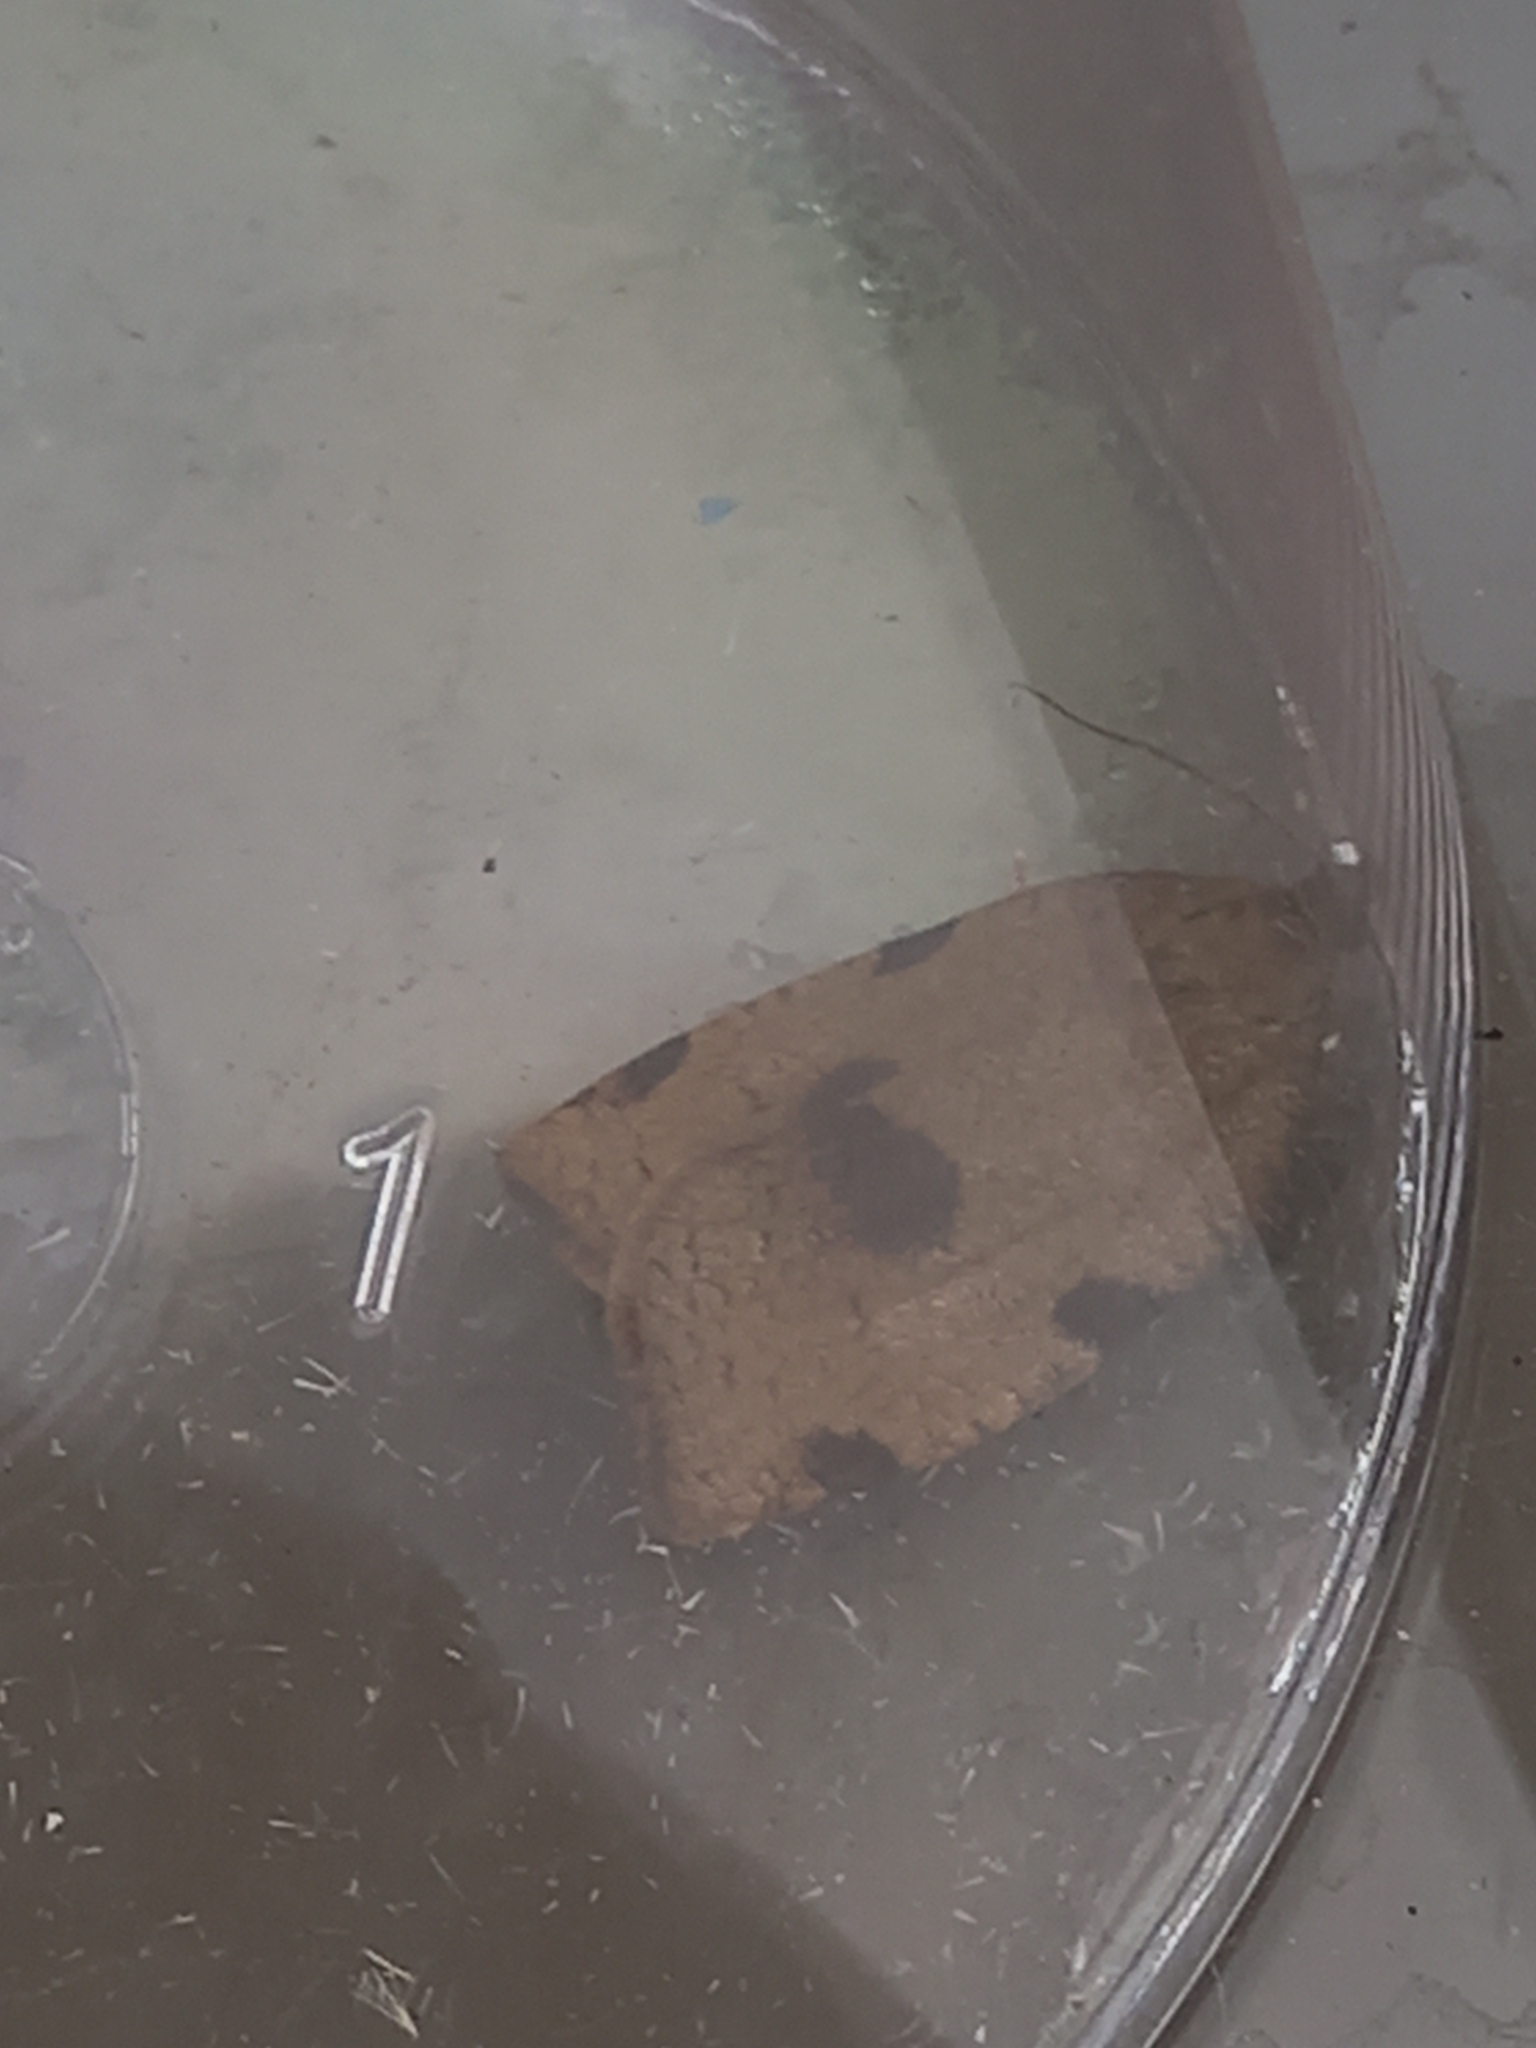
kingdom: Animalia
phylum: Arthropoda
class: Insecta
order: Lepidoptera
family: Tortricidae
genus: Lozotaenia
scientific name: Lozotaenia forsterana
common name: Large ivy twist
